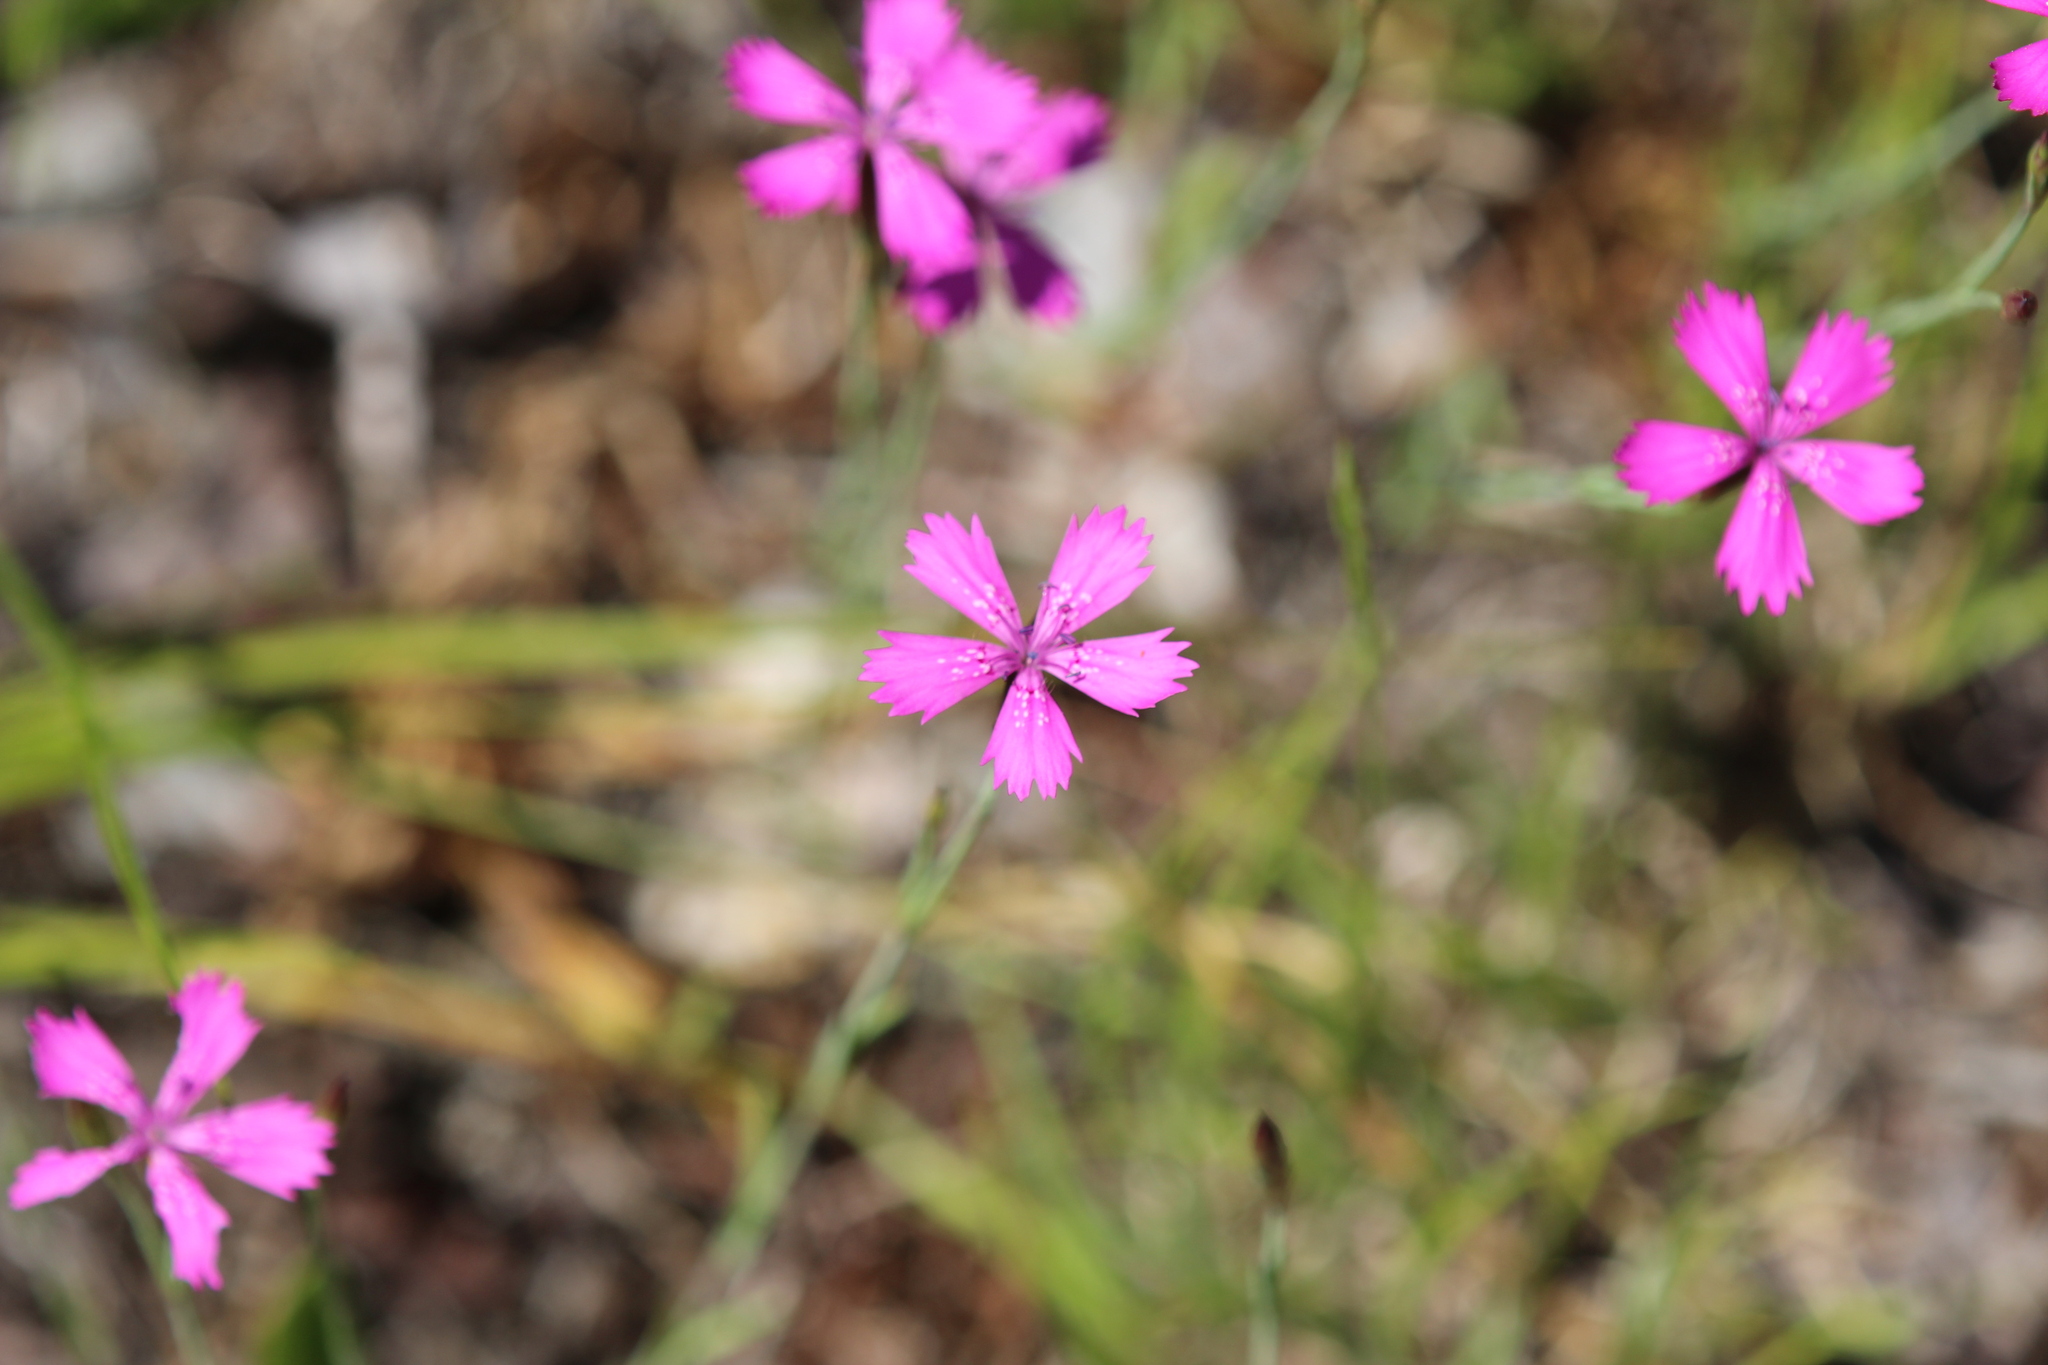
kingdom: Plantae
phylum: Tracheophyta
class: Magnoliopsida
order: Caryophyllales
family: Caryophyllaceae
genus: Dianthus
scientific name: Dianthus deltoides
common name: Maiden pink
